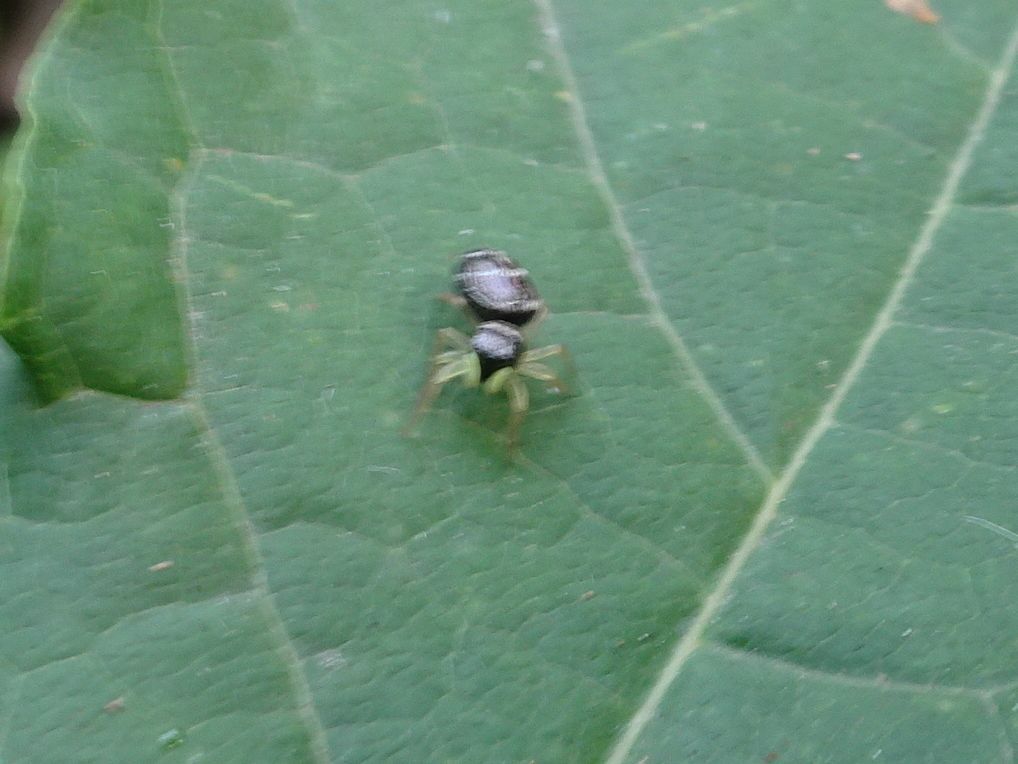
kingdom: Animalia
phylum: Arthropoda
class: Arachnida
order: Araneae
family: Salticidae
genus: Heliophanus
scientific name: Heliophanus cupreus
